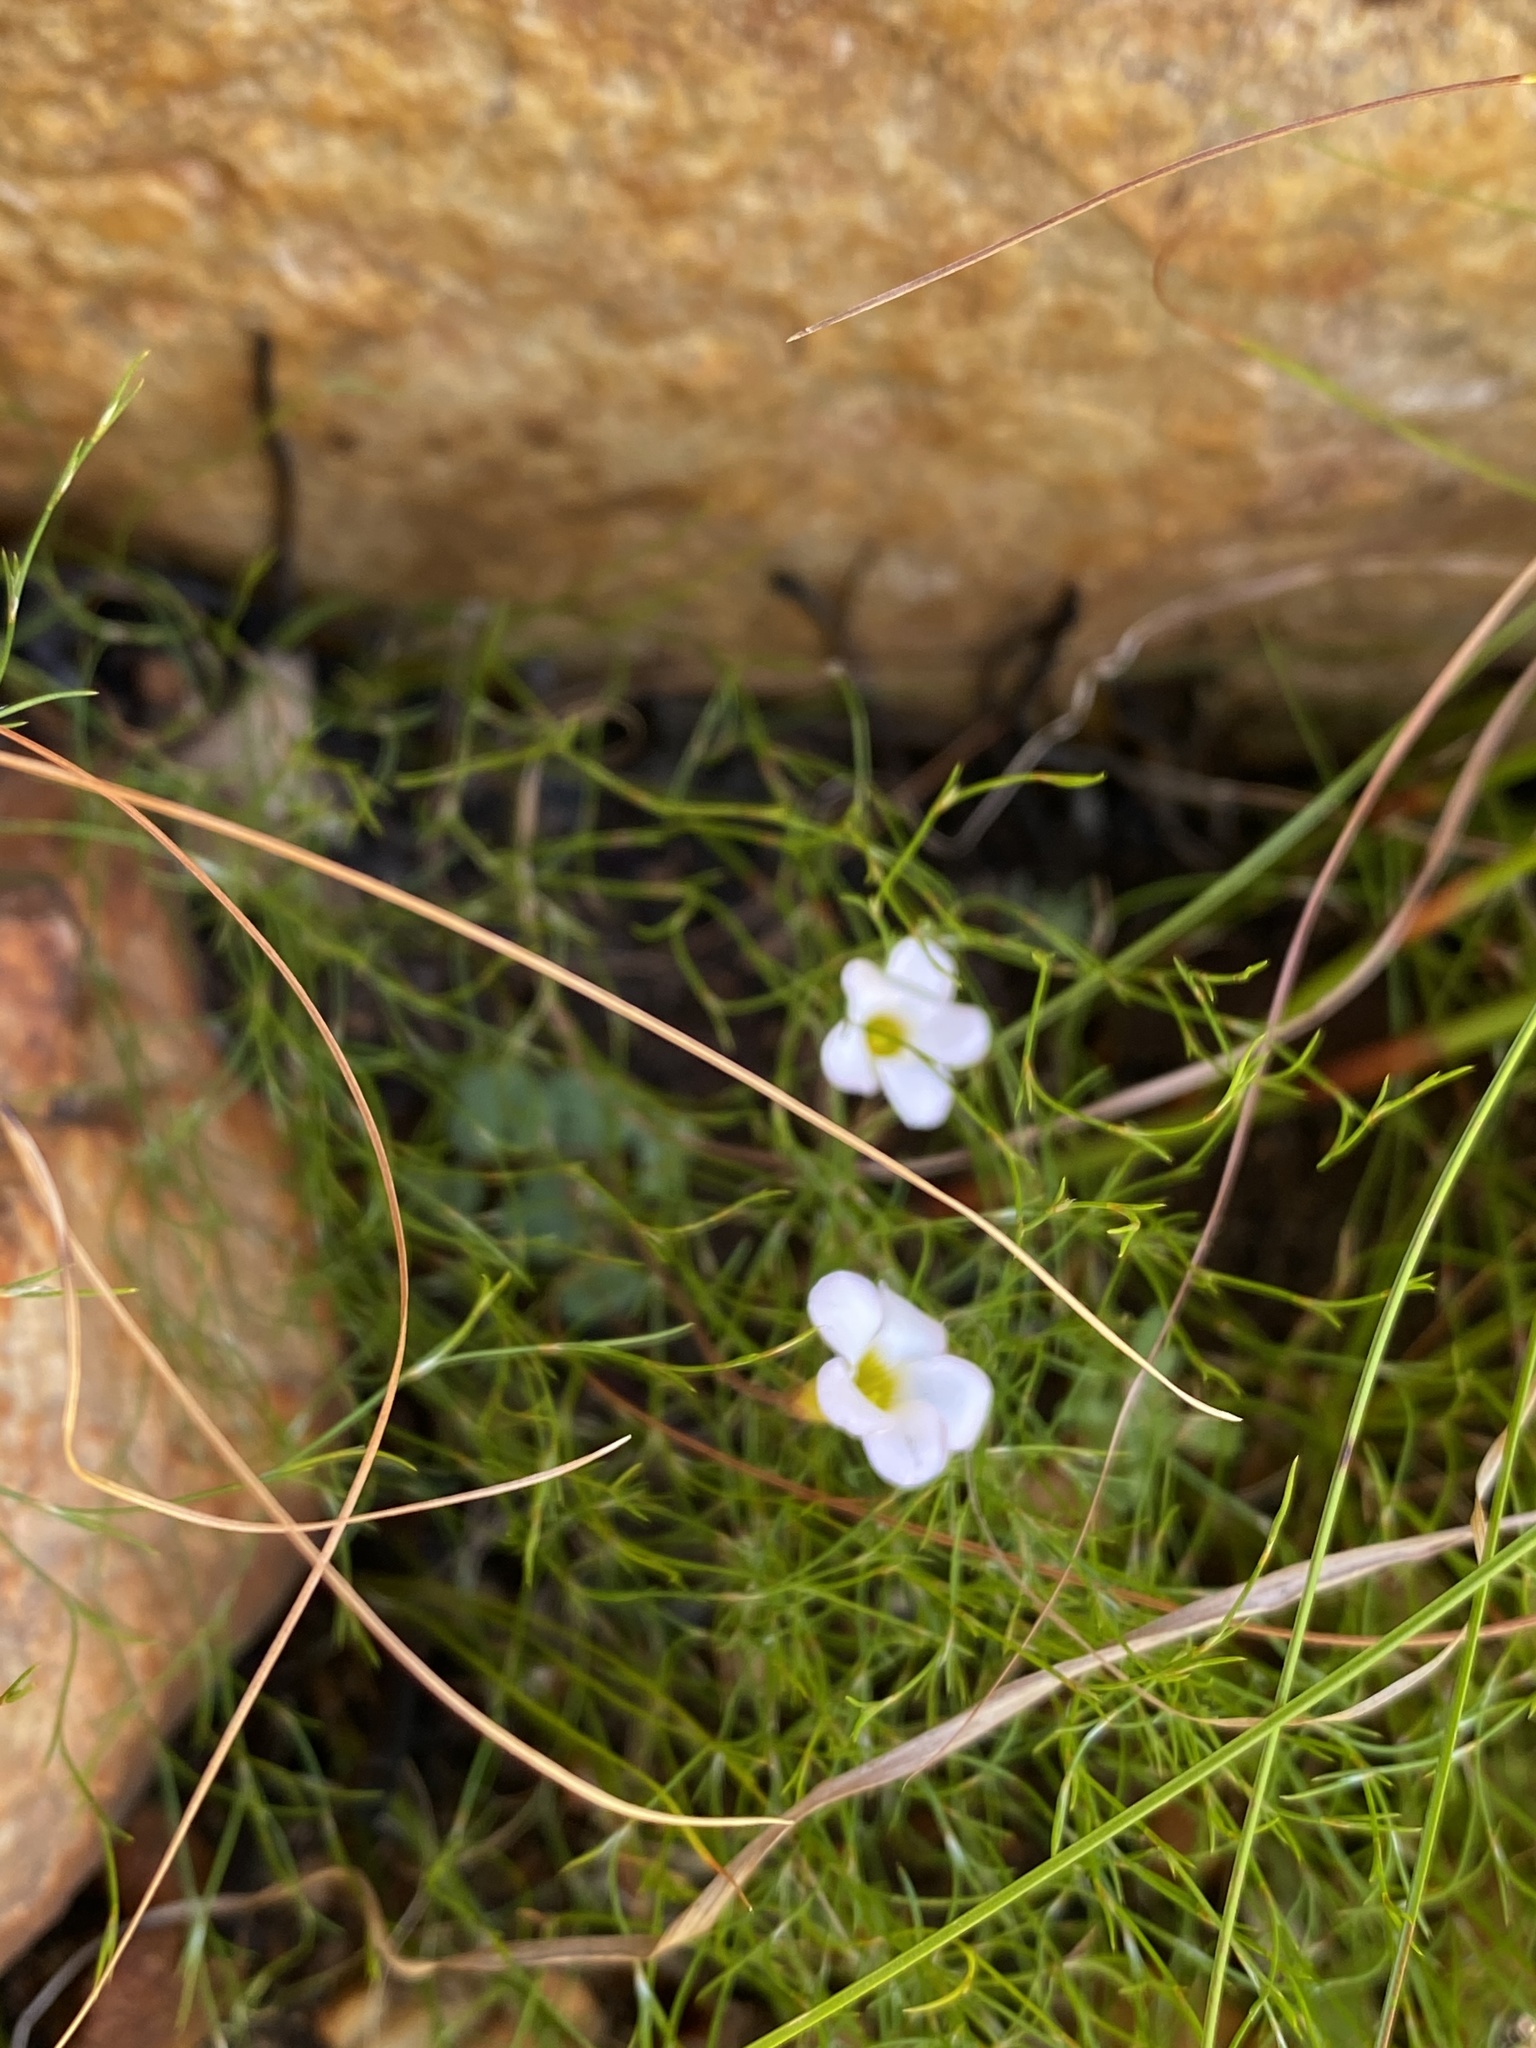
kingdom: Plantae
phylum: Tracheophyta
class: Magnoliopsida
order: Oxalidales
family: Oxalidaceae
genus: Oxalis
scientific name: Oxalis punctata
